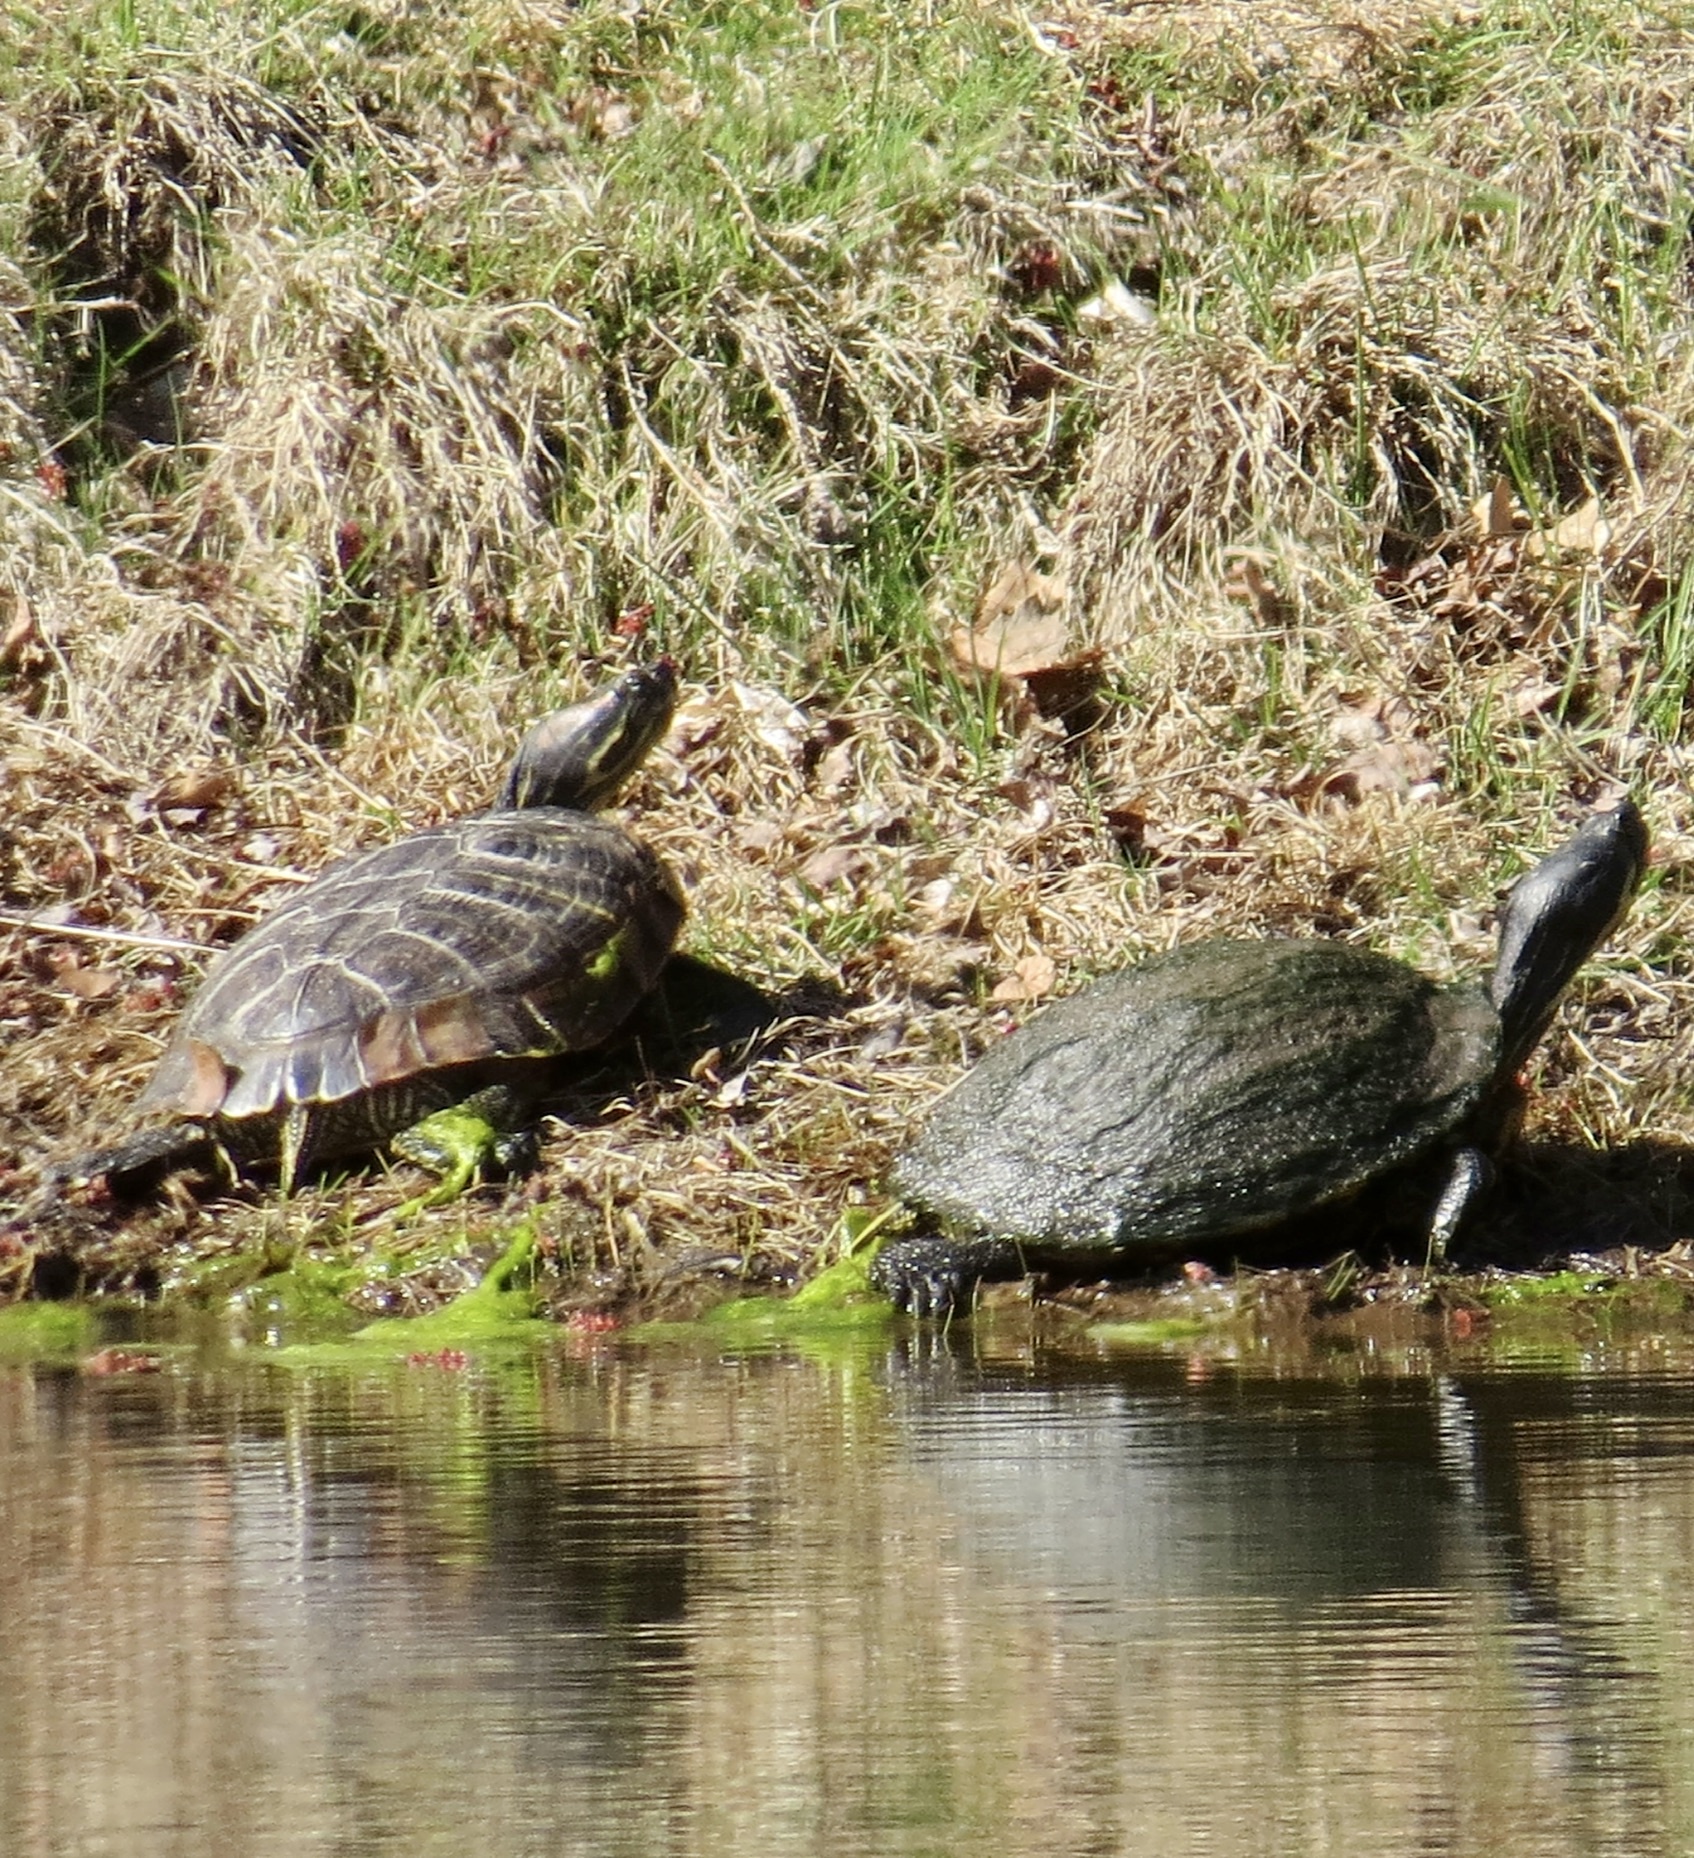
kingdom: Animalia
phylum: Chordata
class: Testudines
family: Emydidae
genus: Trachemys
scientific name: Trachemys scripta
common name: Slider
